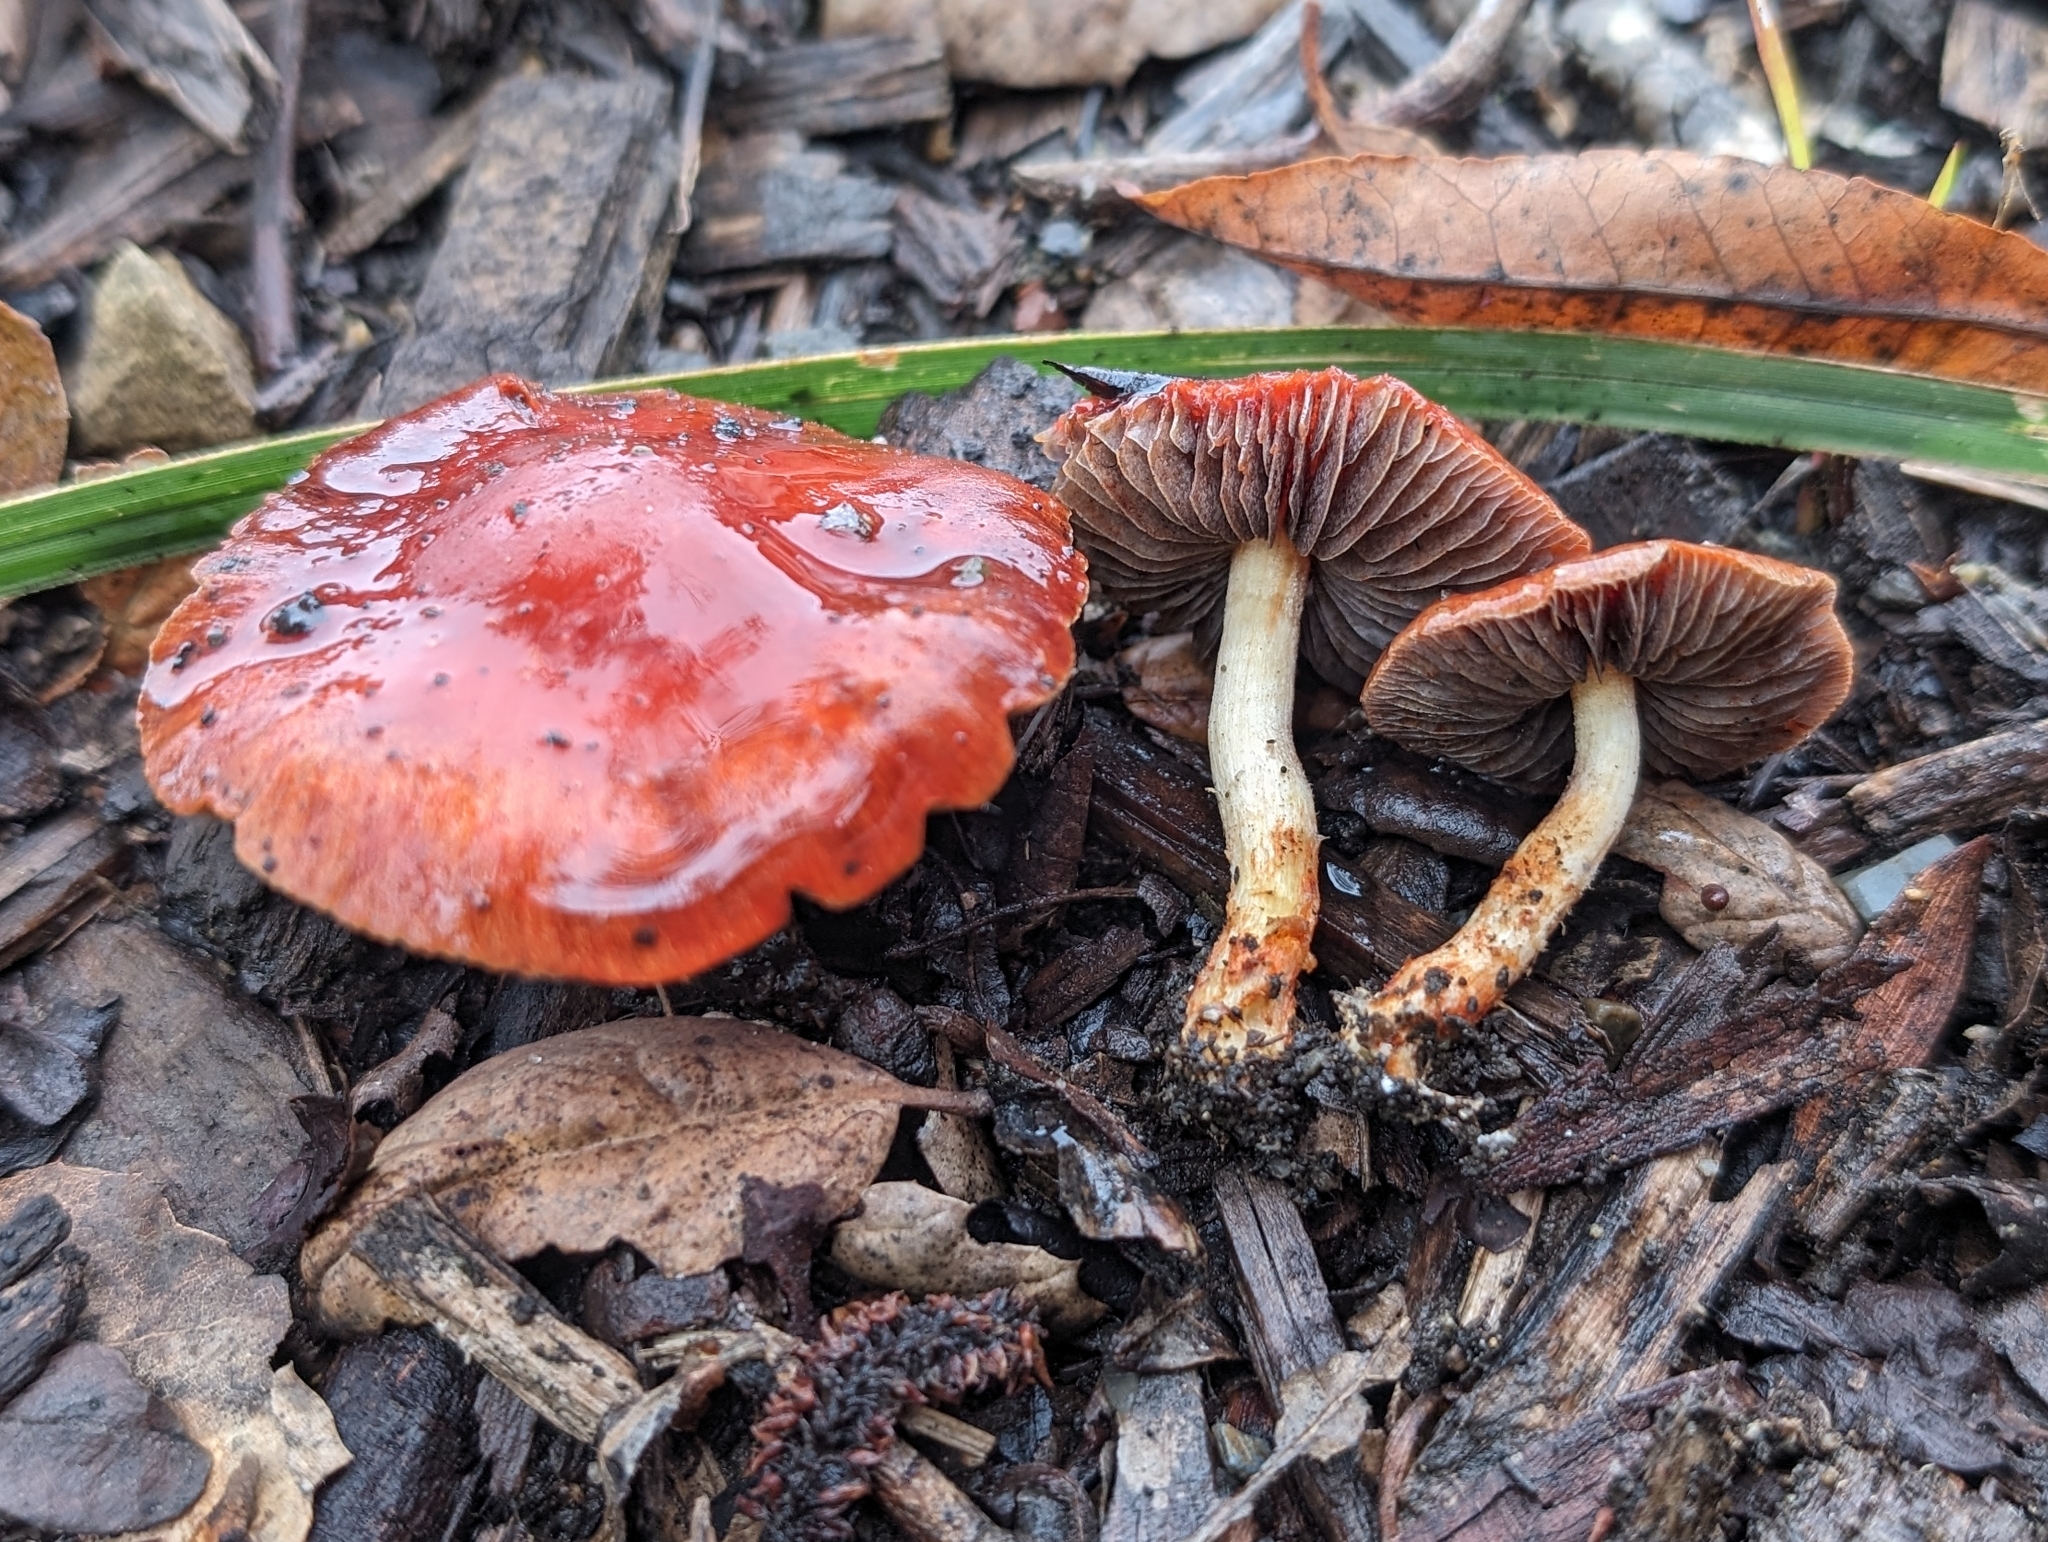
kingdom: Fungi
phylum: Basidiomycota
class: Agaricomycetes
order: Agaricales
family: Strophariaceae
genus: Leratiomyces
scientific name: Leratiomyces ceres
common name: Redlead roundhead
